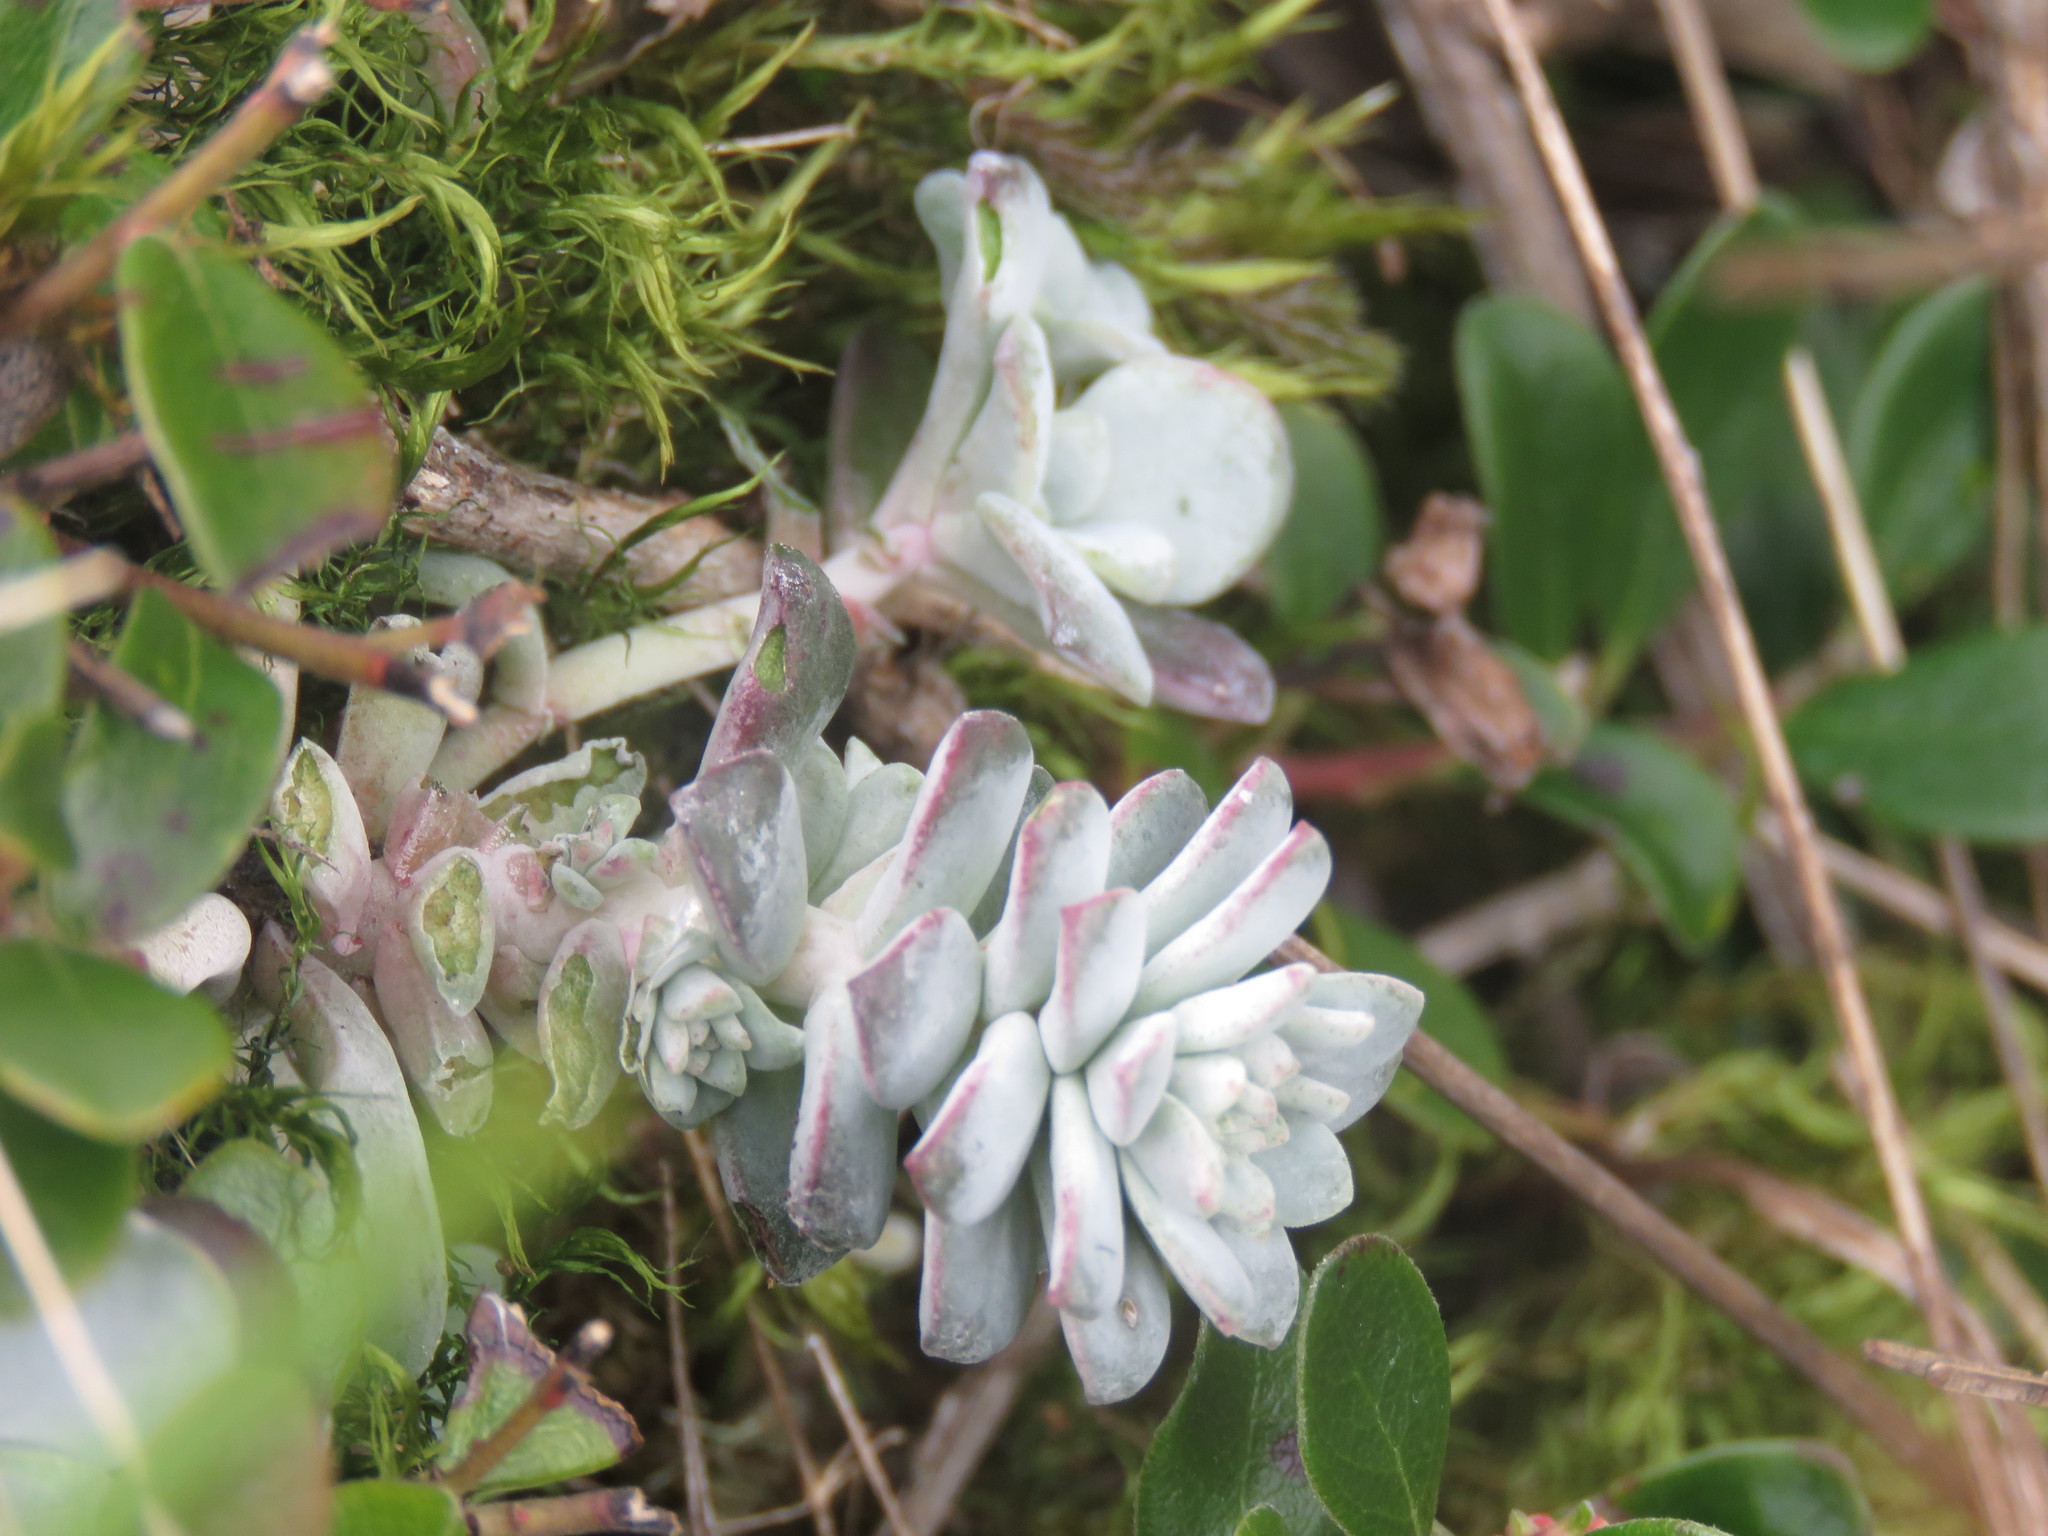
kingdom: Plantae
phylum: Tracheophyta
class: Magnoliopsida
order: Saxifragales
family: Crassulaceae
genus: Sedum
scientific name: Sedum spathulifolium
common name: Colorado stonecrop
